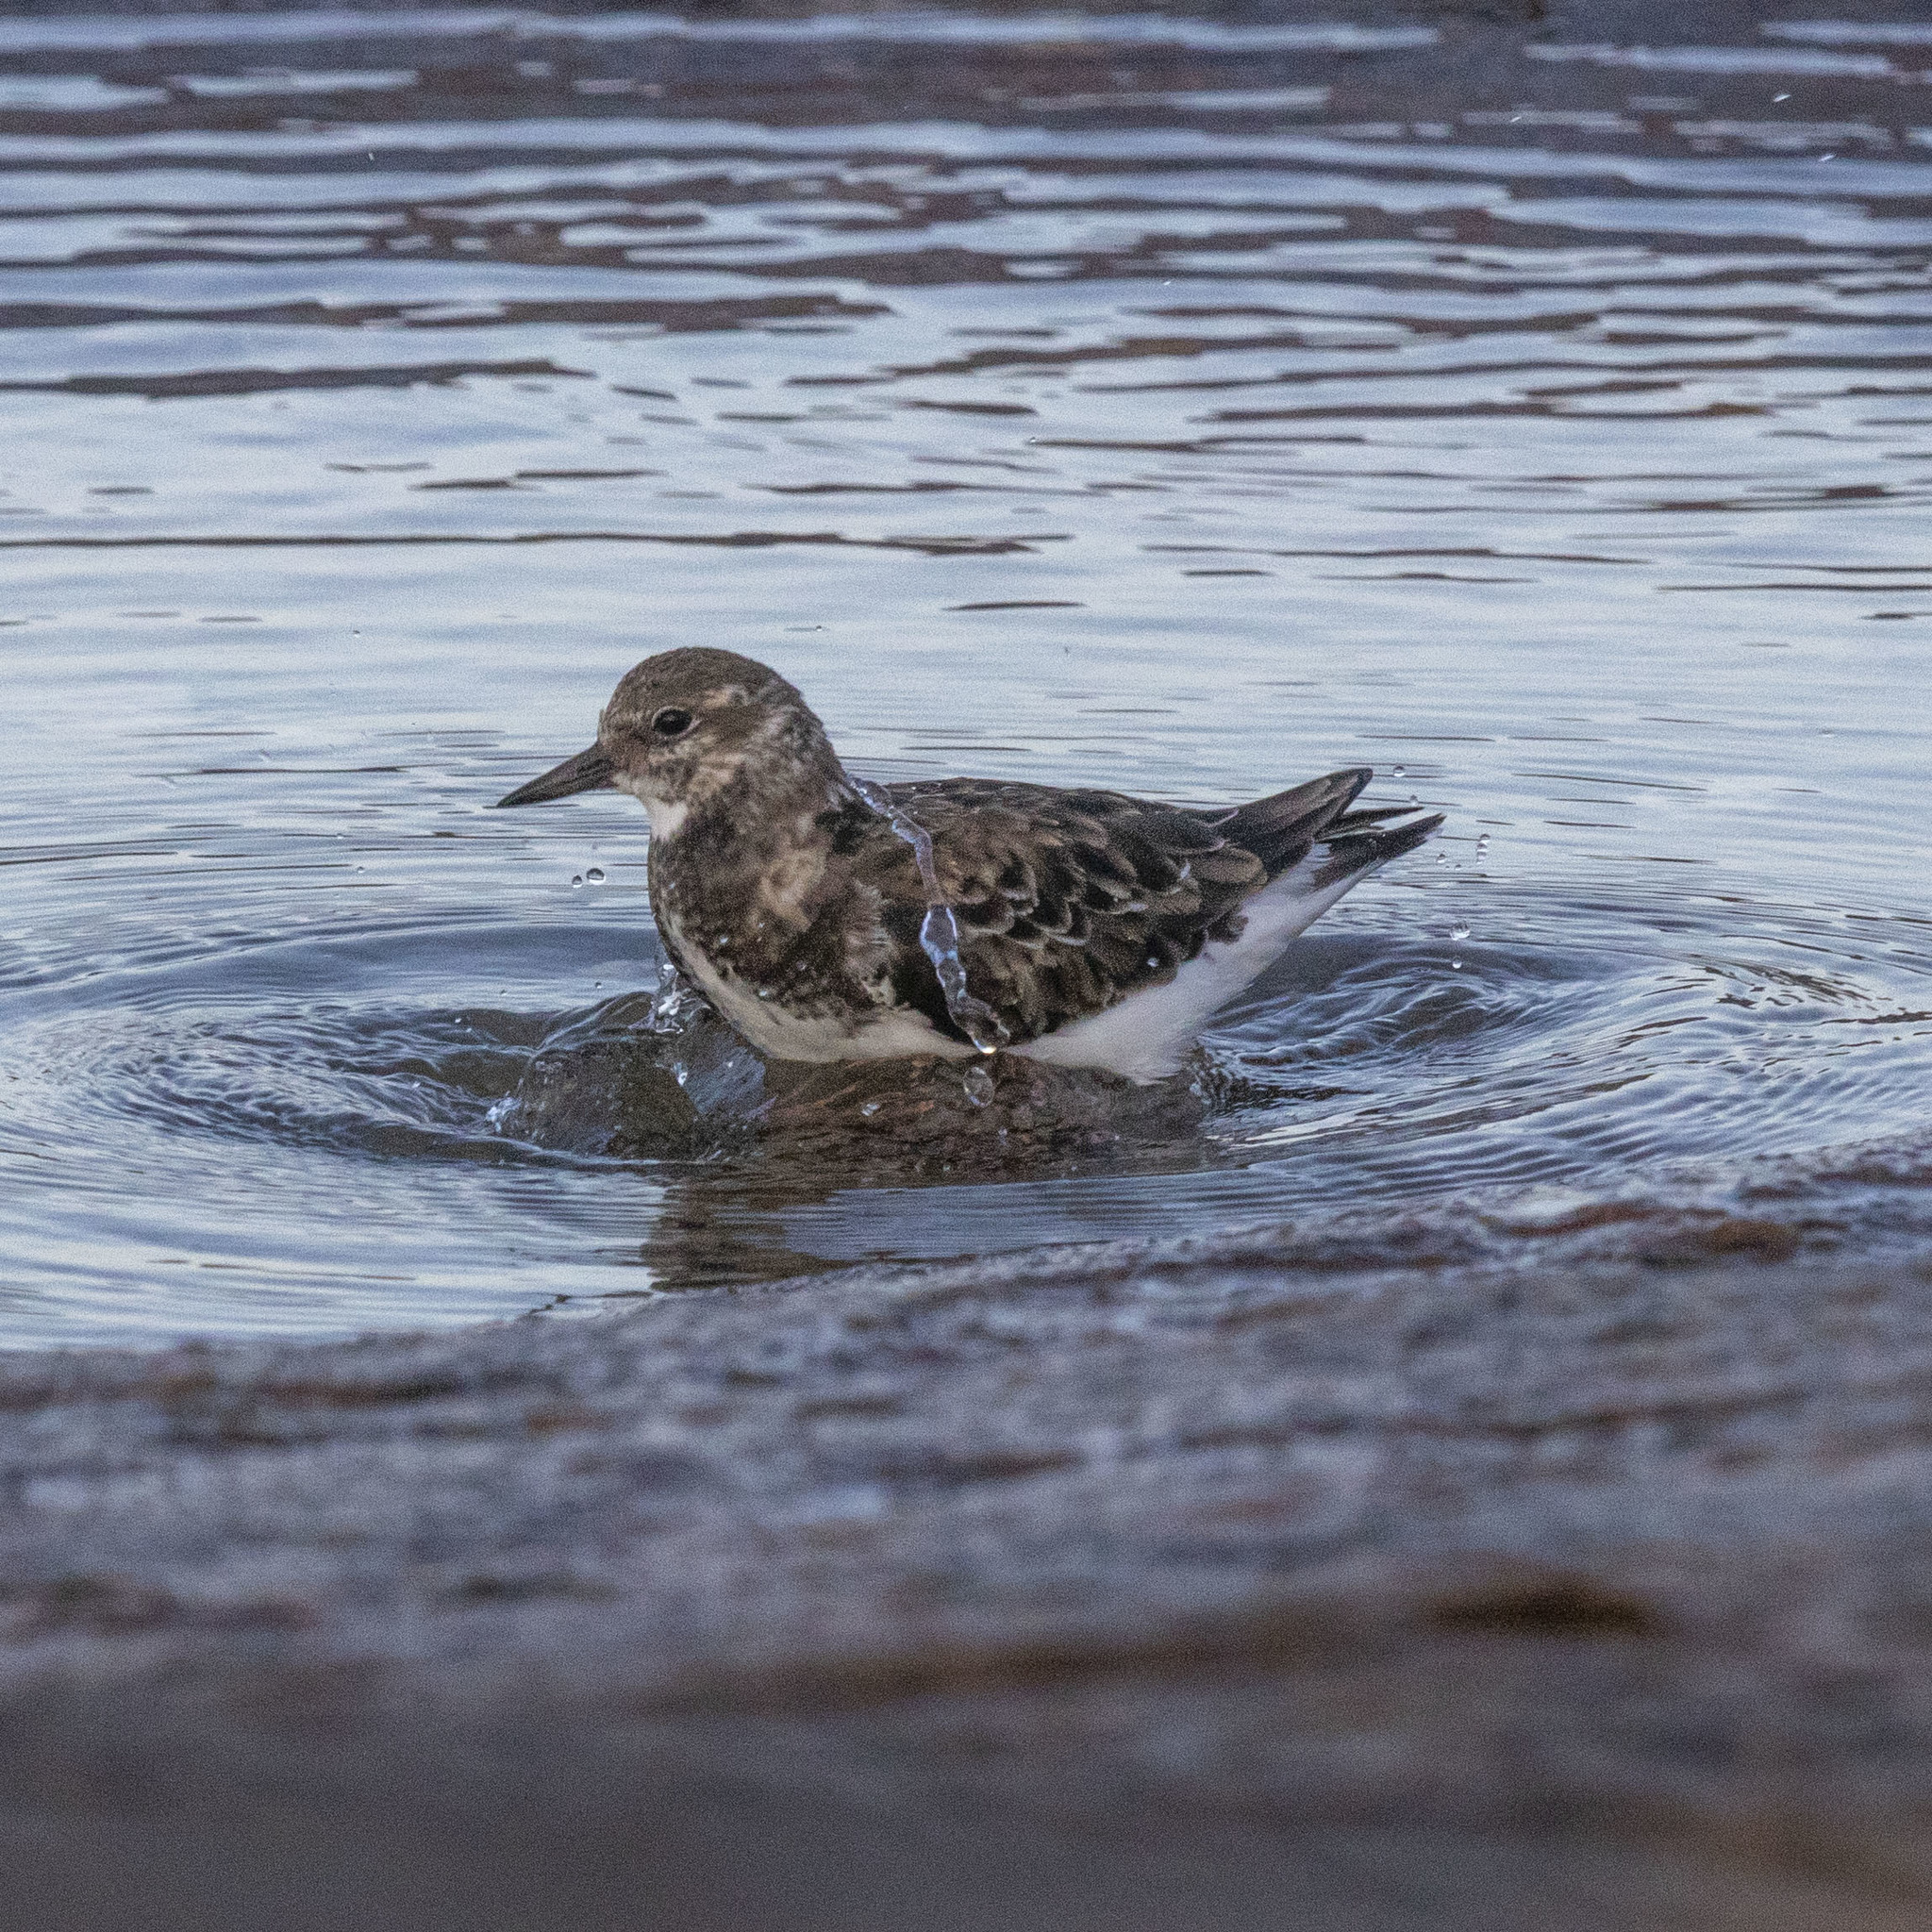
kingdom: Animalia
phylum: Chordata
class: Aves
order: Charadriiformes
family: Scolopacidae
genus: Arenaria
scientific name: Arenaria interpres
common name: Ruddy turnstone
